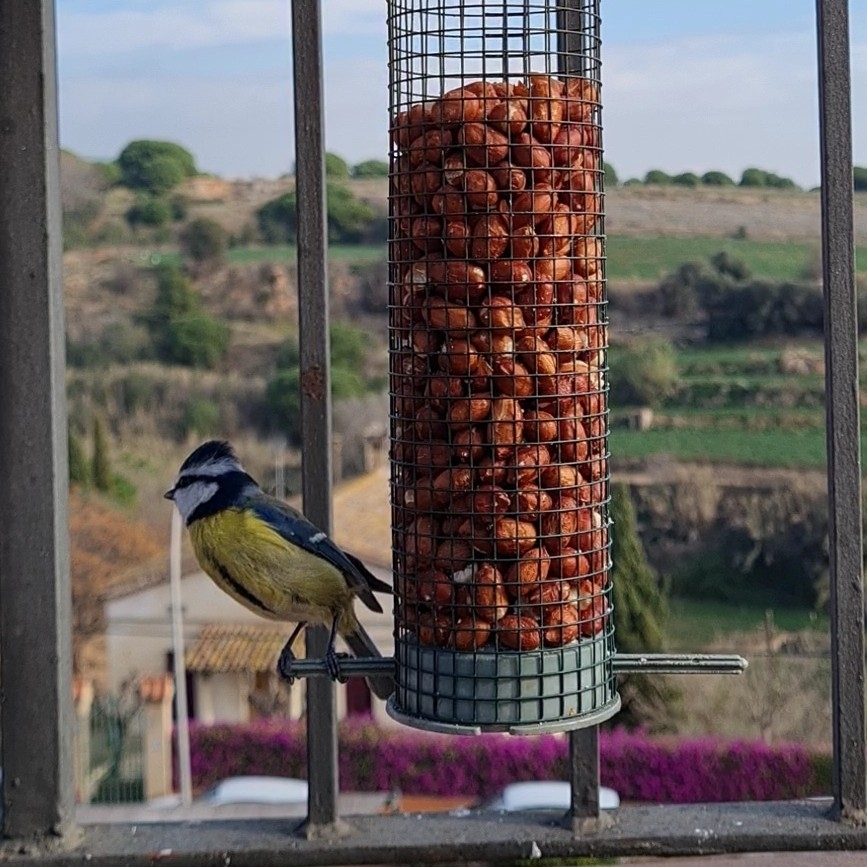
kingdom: Animalia
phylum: Chordata
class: Aves
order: Passeriformes
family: Paridae
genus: Cyanistes
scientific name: Cyanistes caeruleus
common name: Eurasian blue tit
